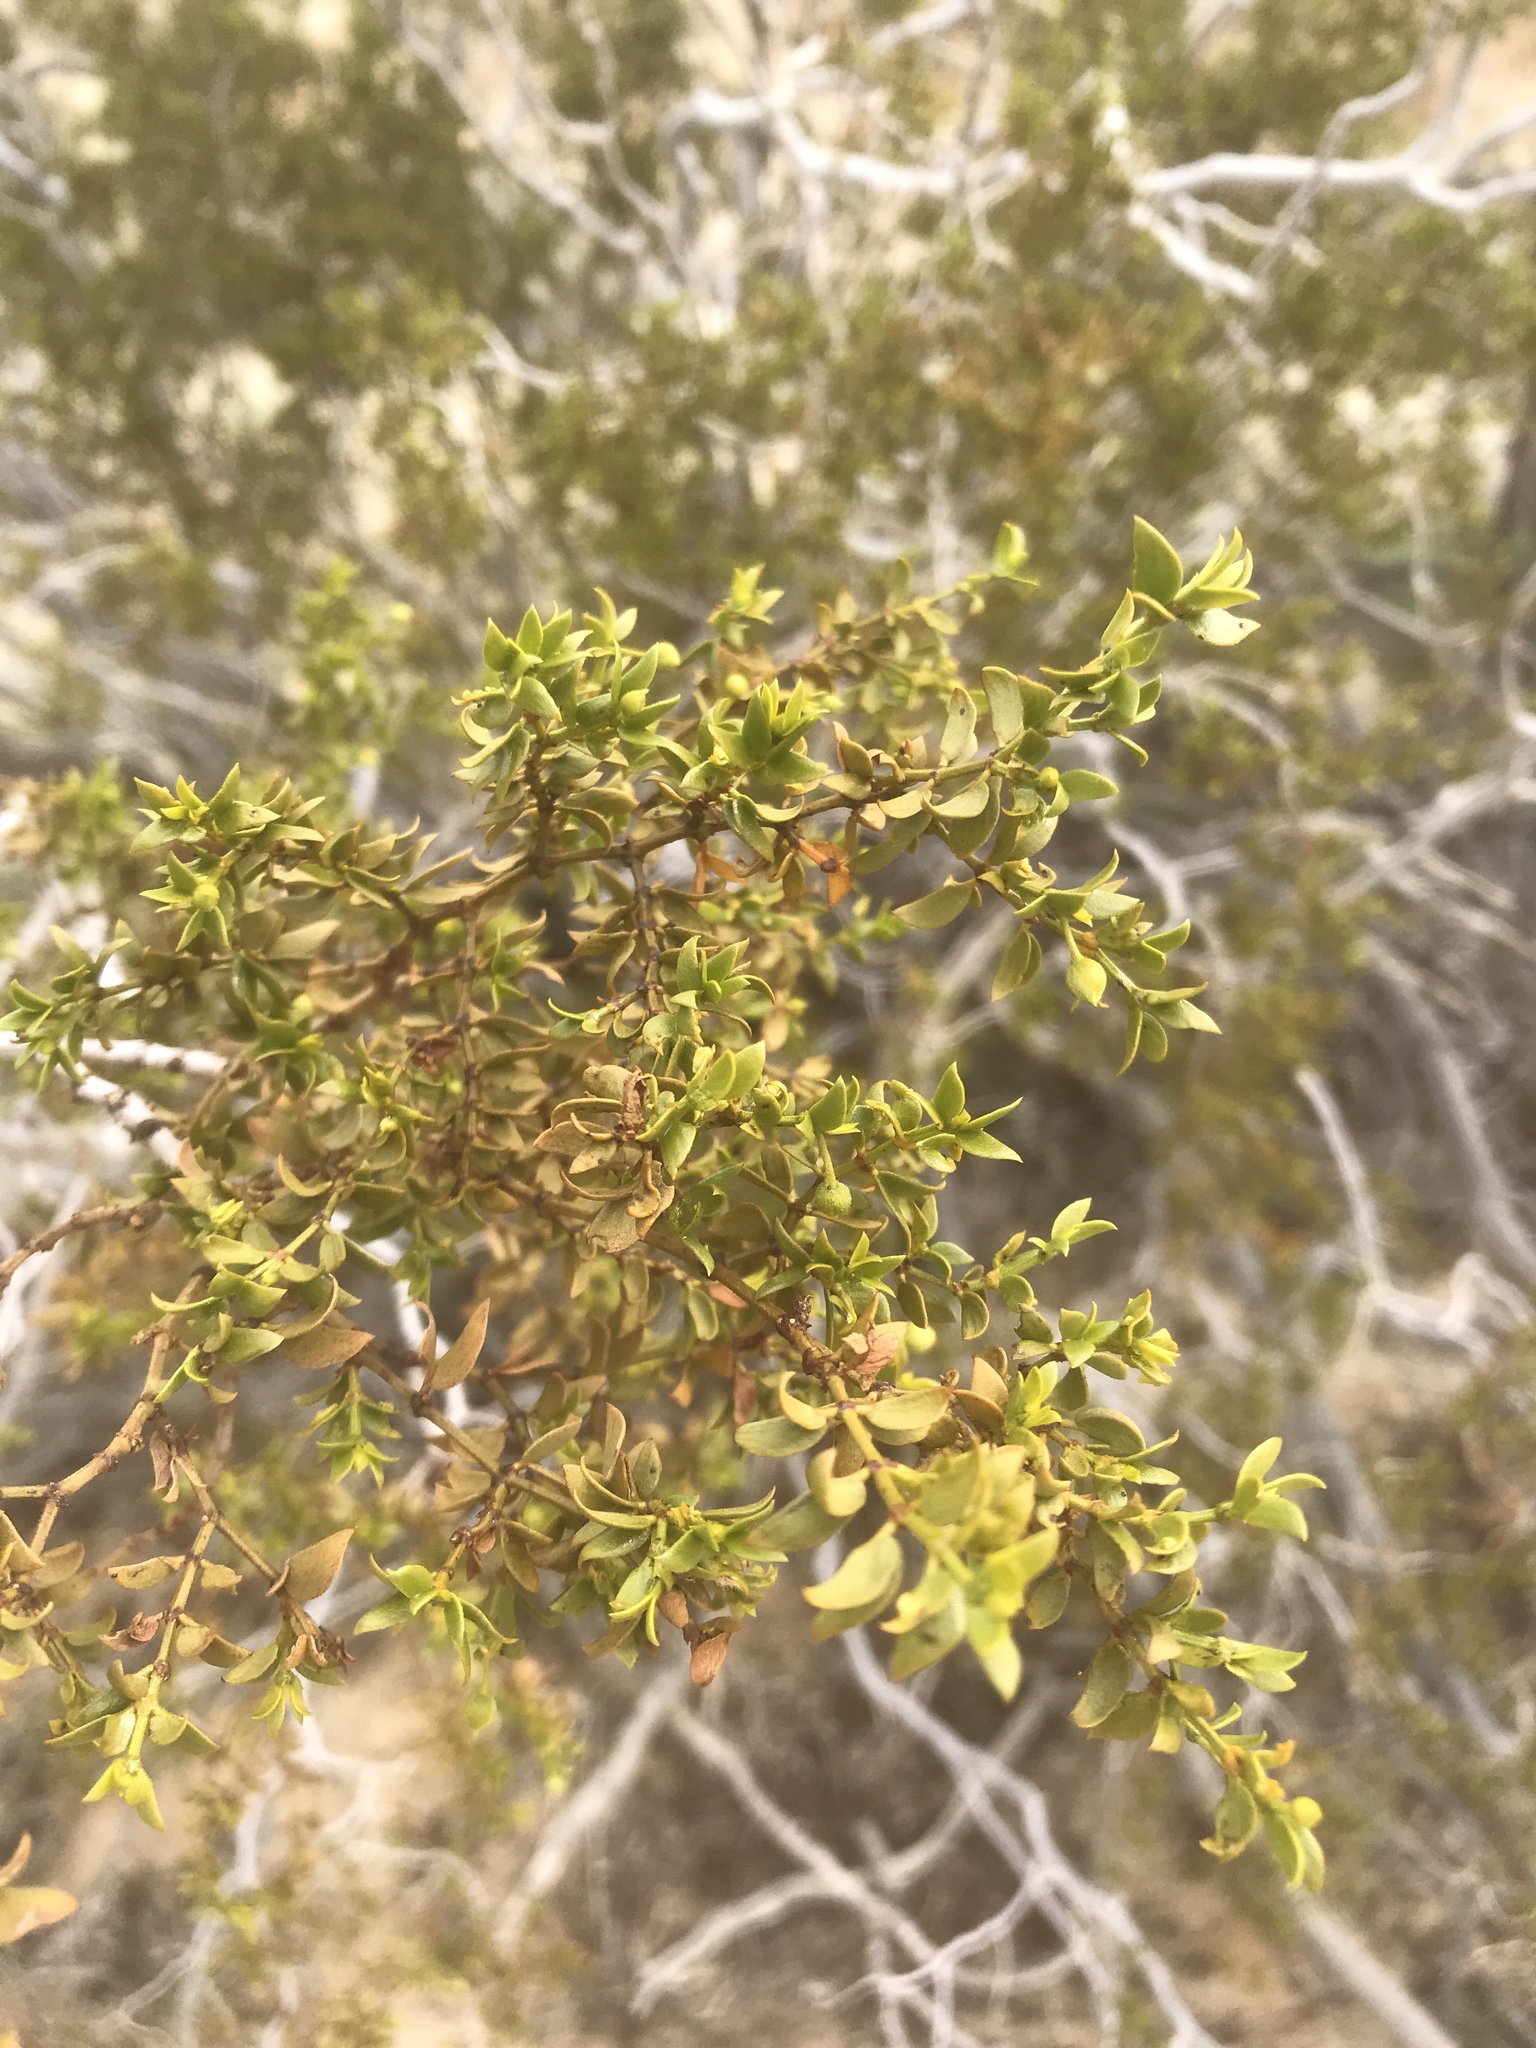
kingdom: Plantae
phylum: Tracheophyta
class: Magnoliopsida
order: Zygophyllales
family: Zygophyllaceae
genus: Larrea
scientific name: Larrea tridentata
